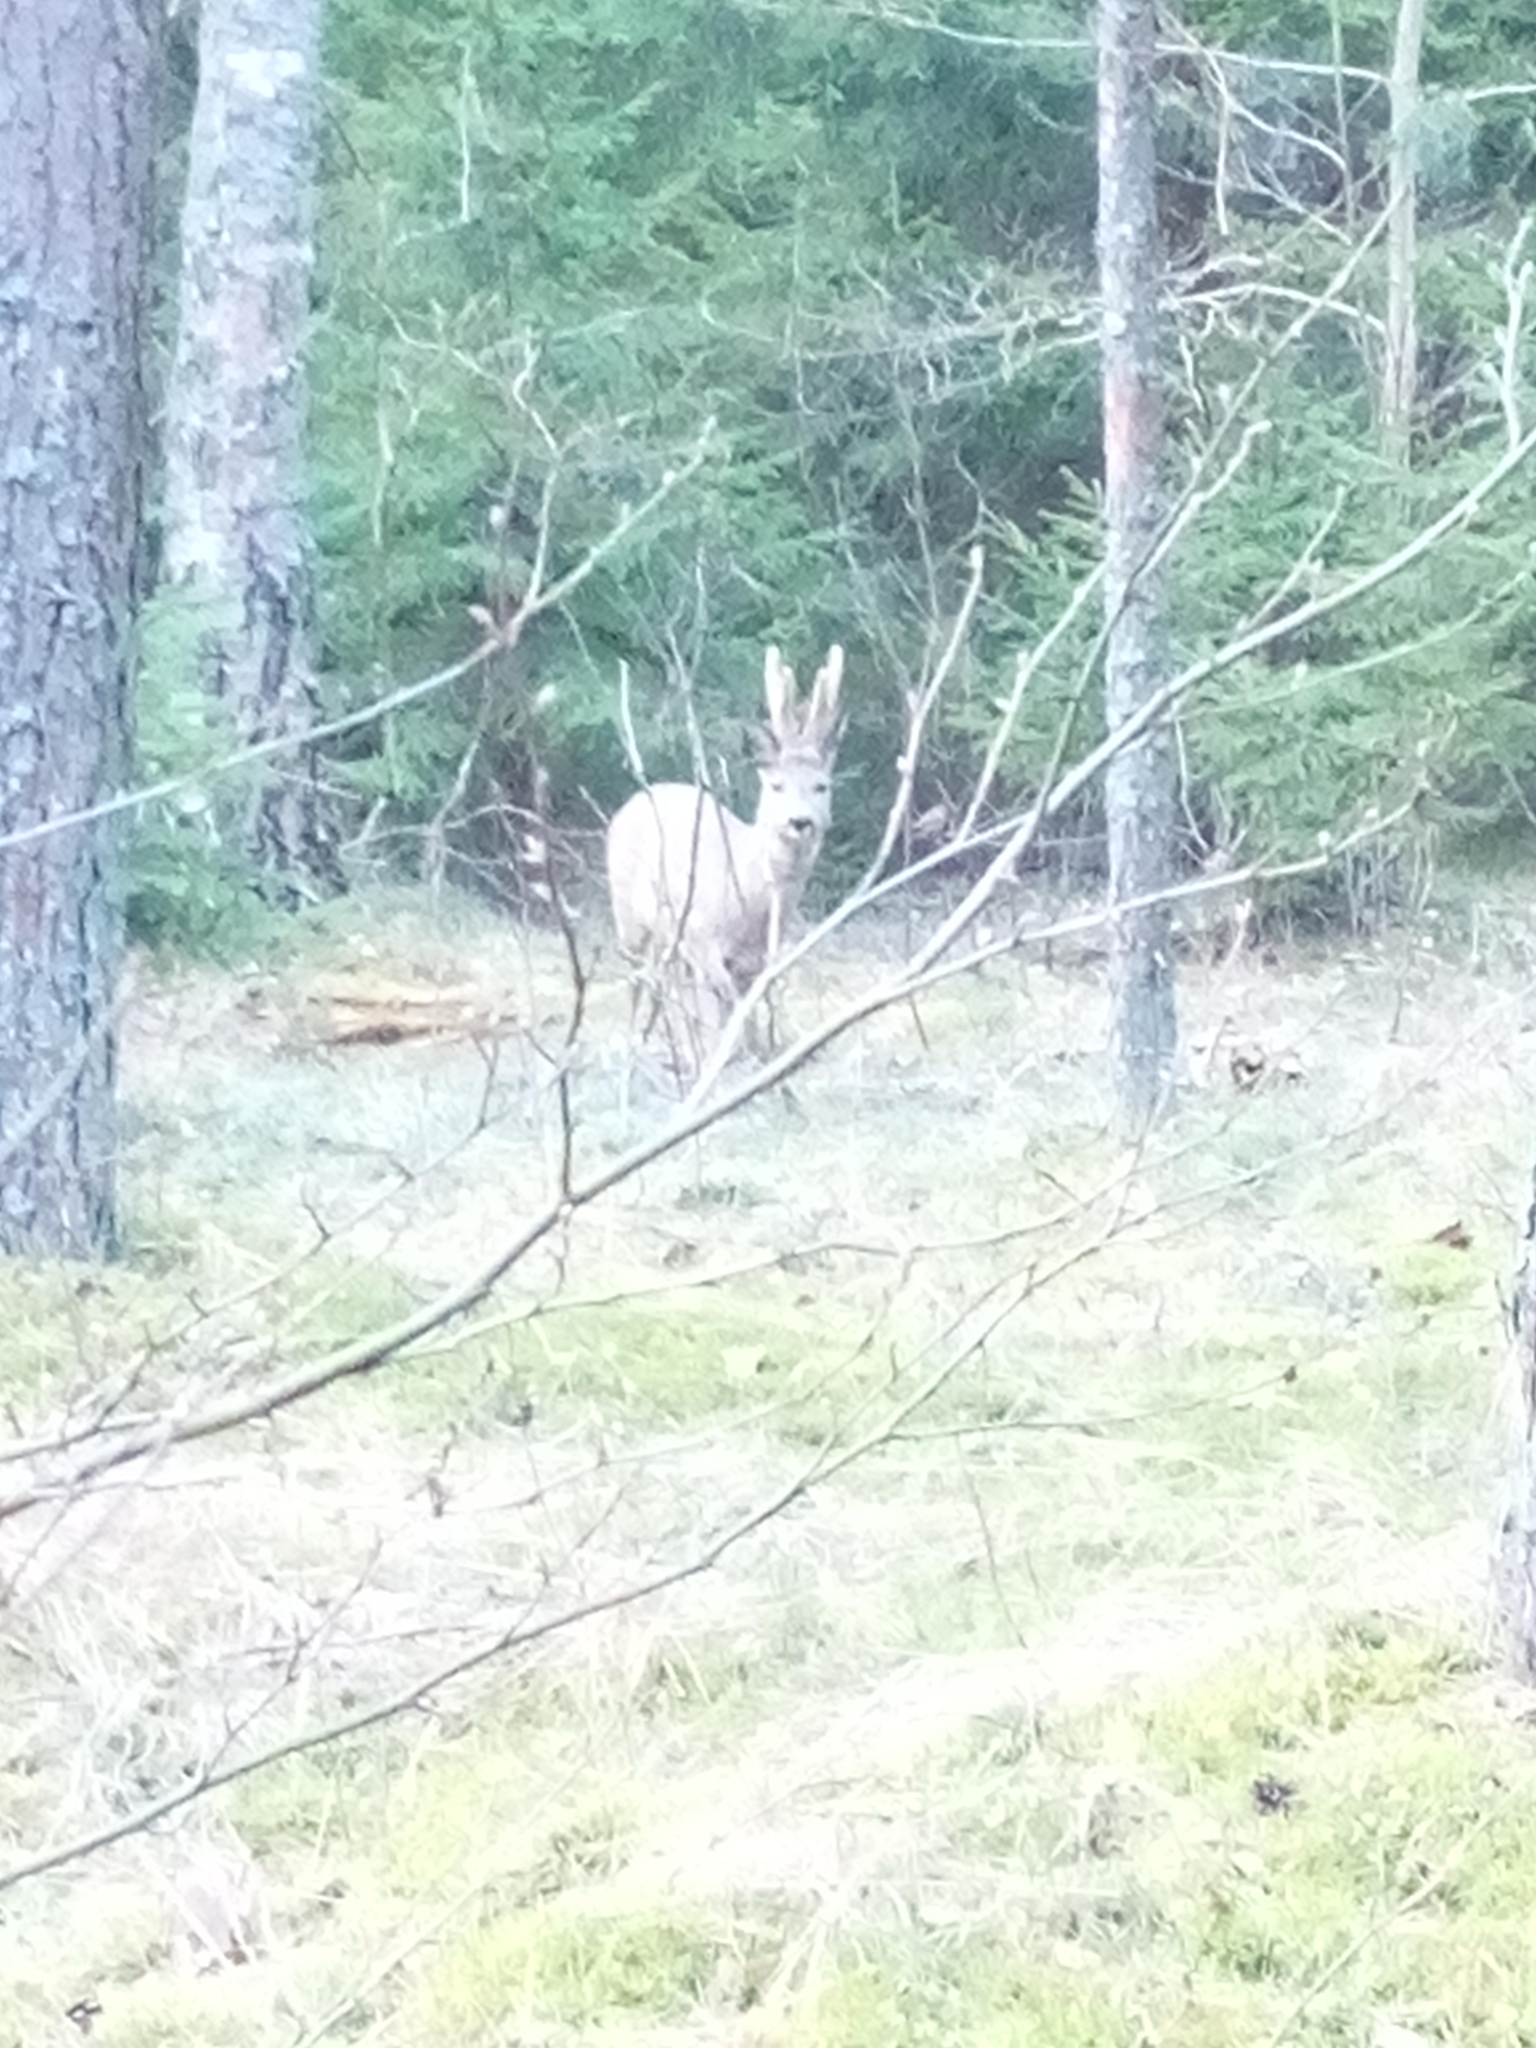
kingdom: Animalia
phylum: Chordata
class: Mammalia
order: Artiodactyla
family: Cervidae
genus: Capreolus
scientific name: Capreolus capreolus
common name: Western roe deer
